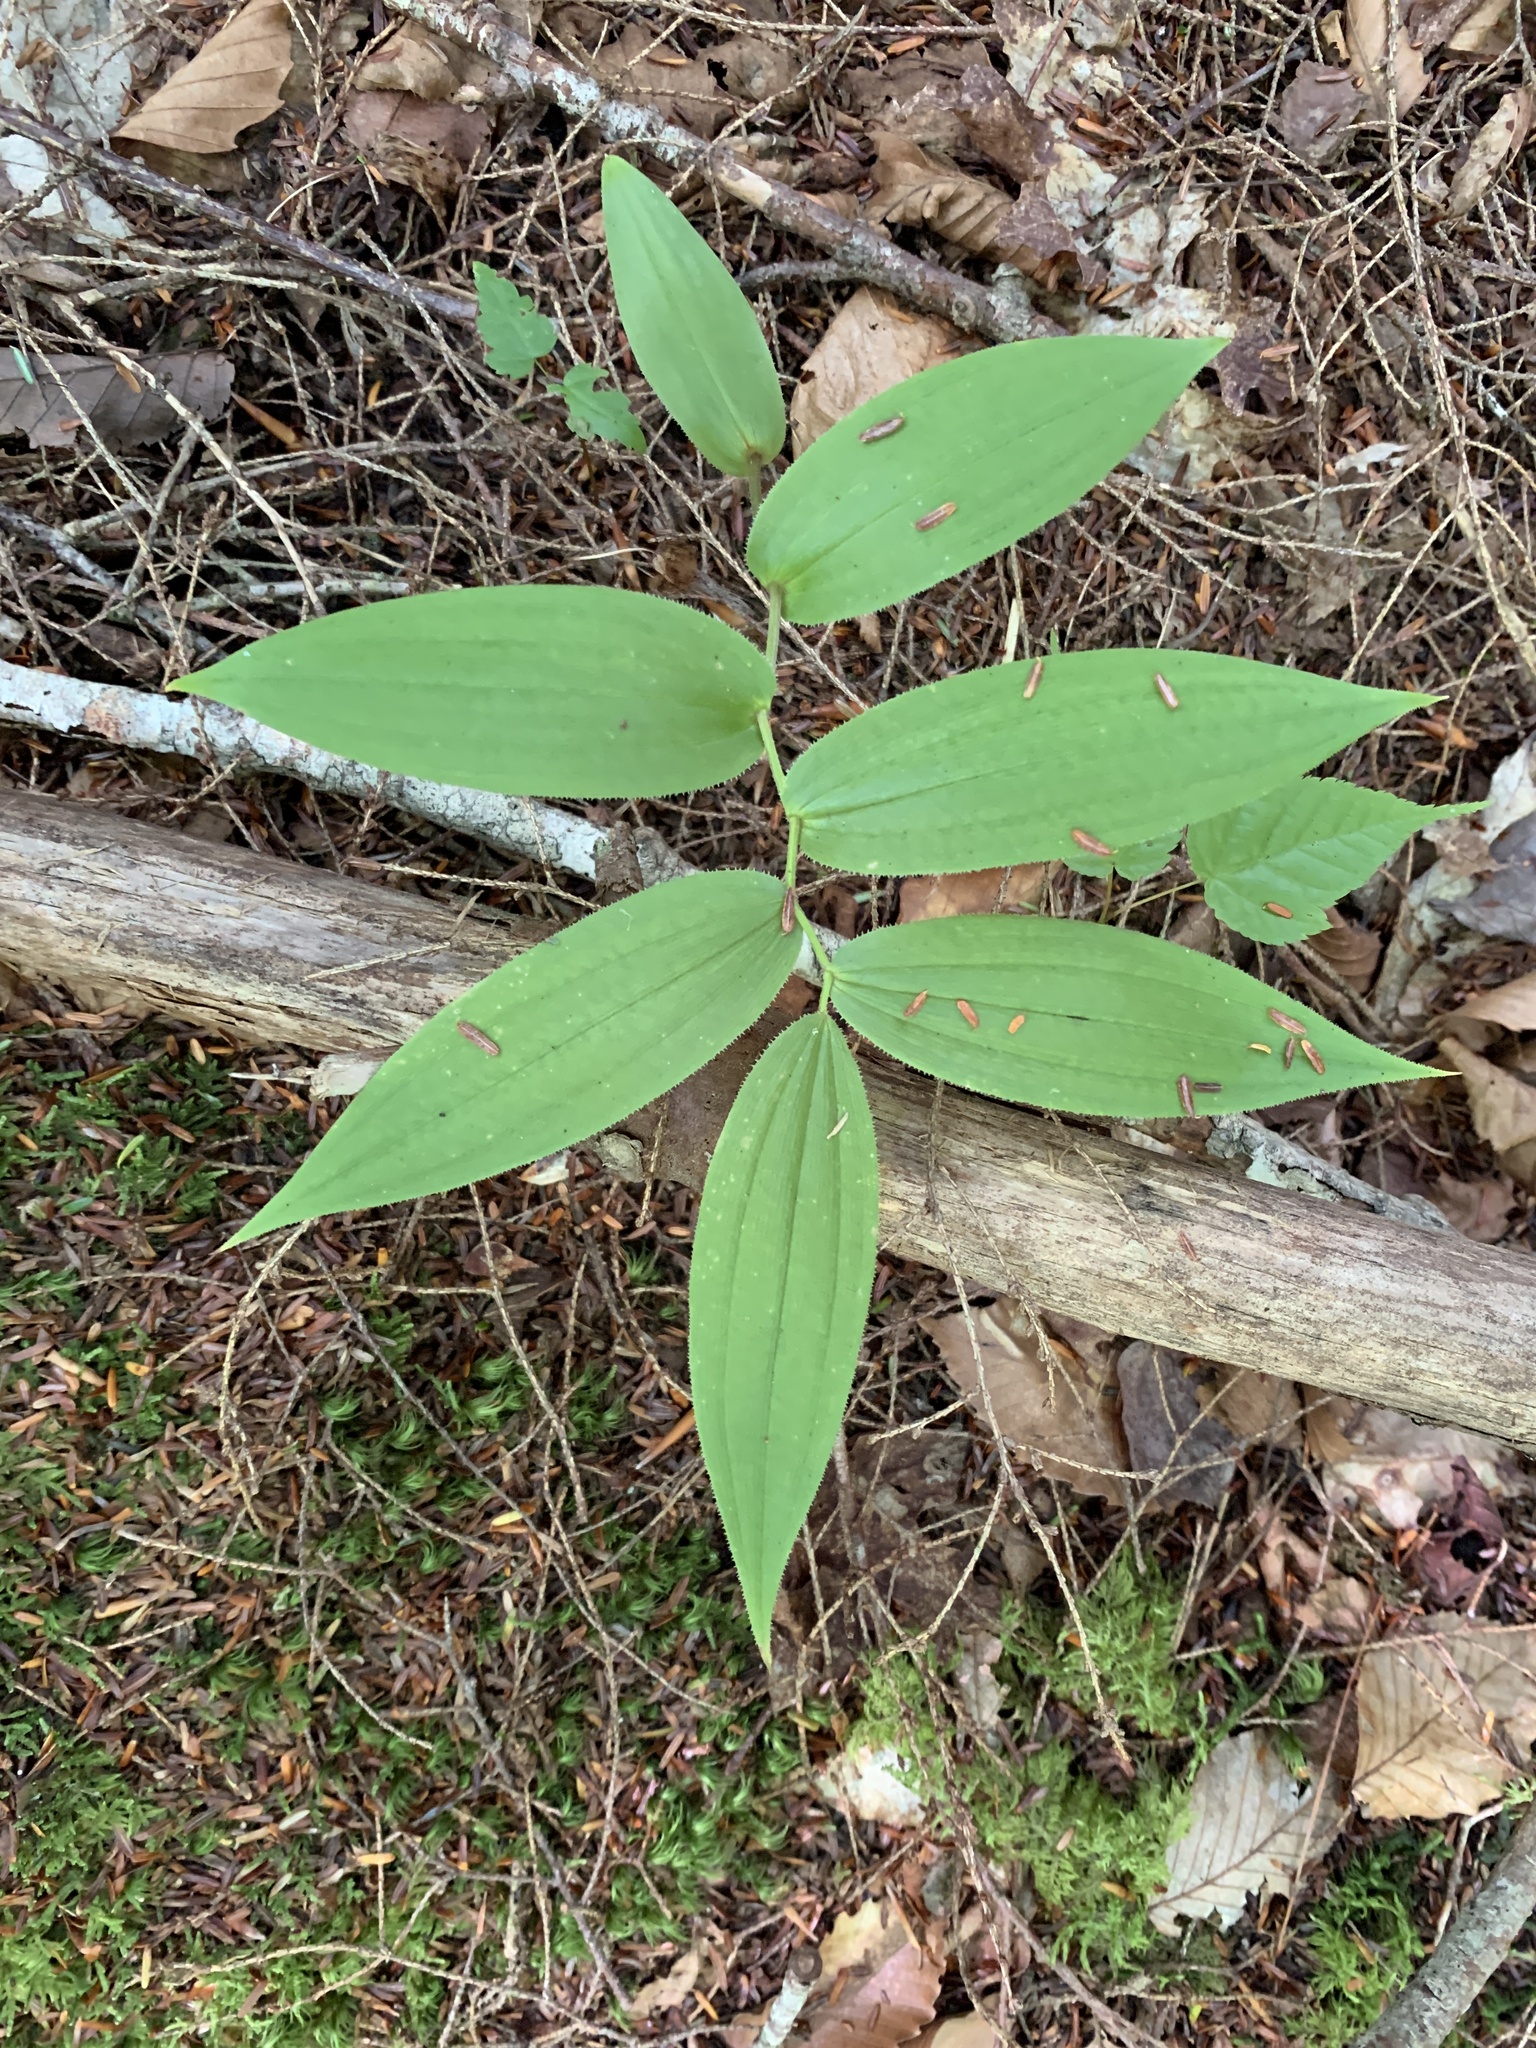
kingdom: Plantae
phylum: Tracheophyta
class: Liliopsida
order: Liliales
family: Liliaceae
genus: Streptopus
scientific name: Streptopus lanceolatus
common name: Rose mandarin
